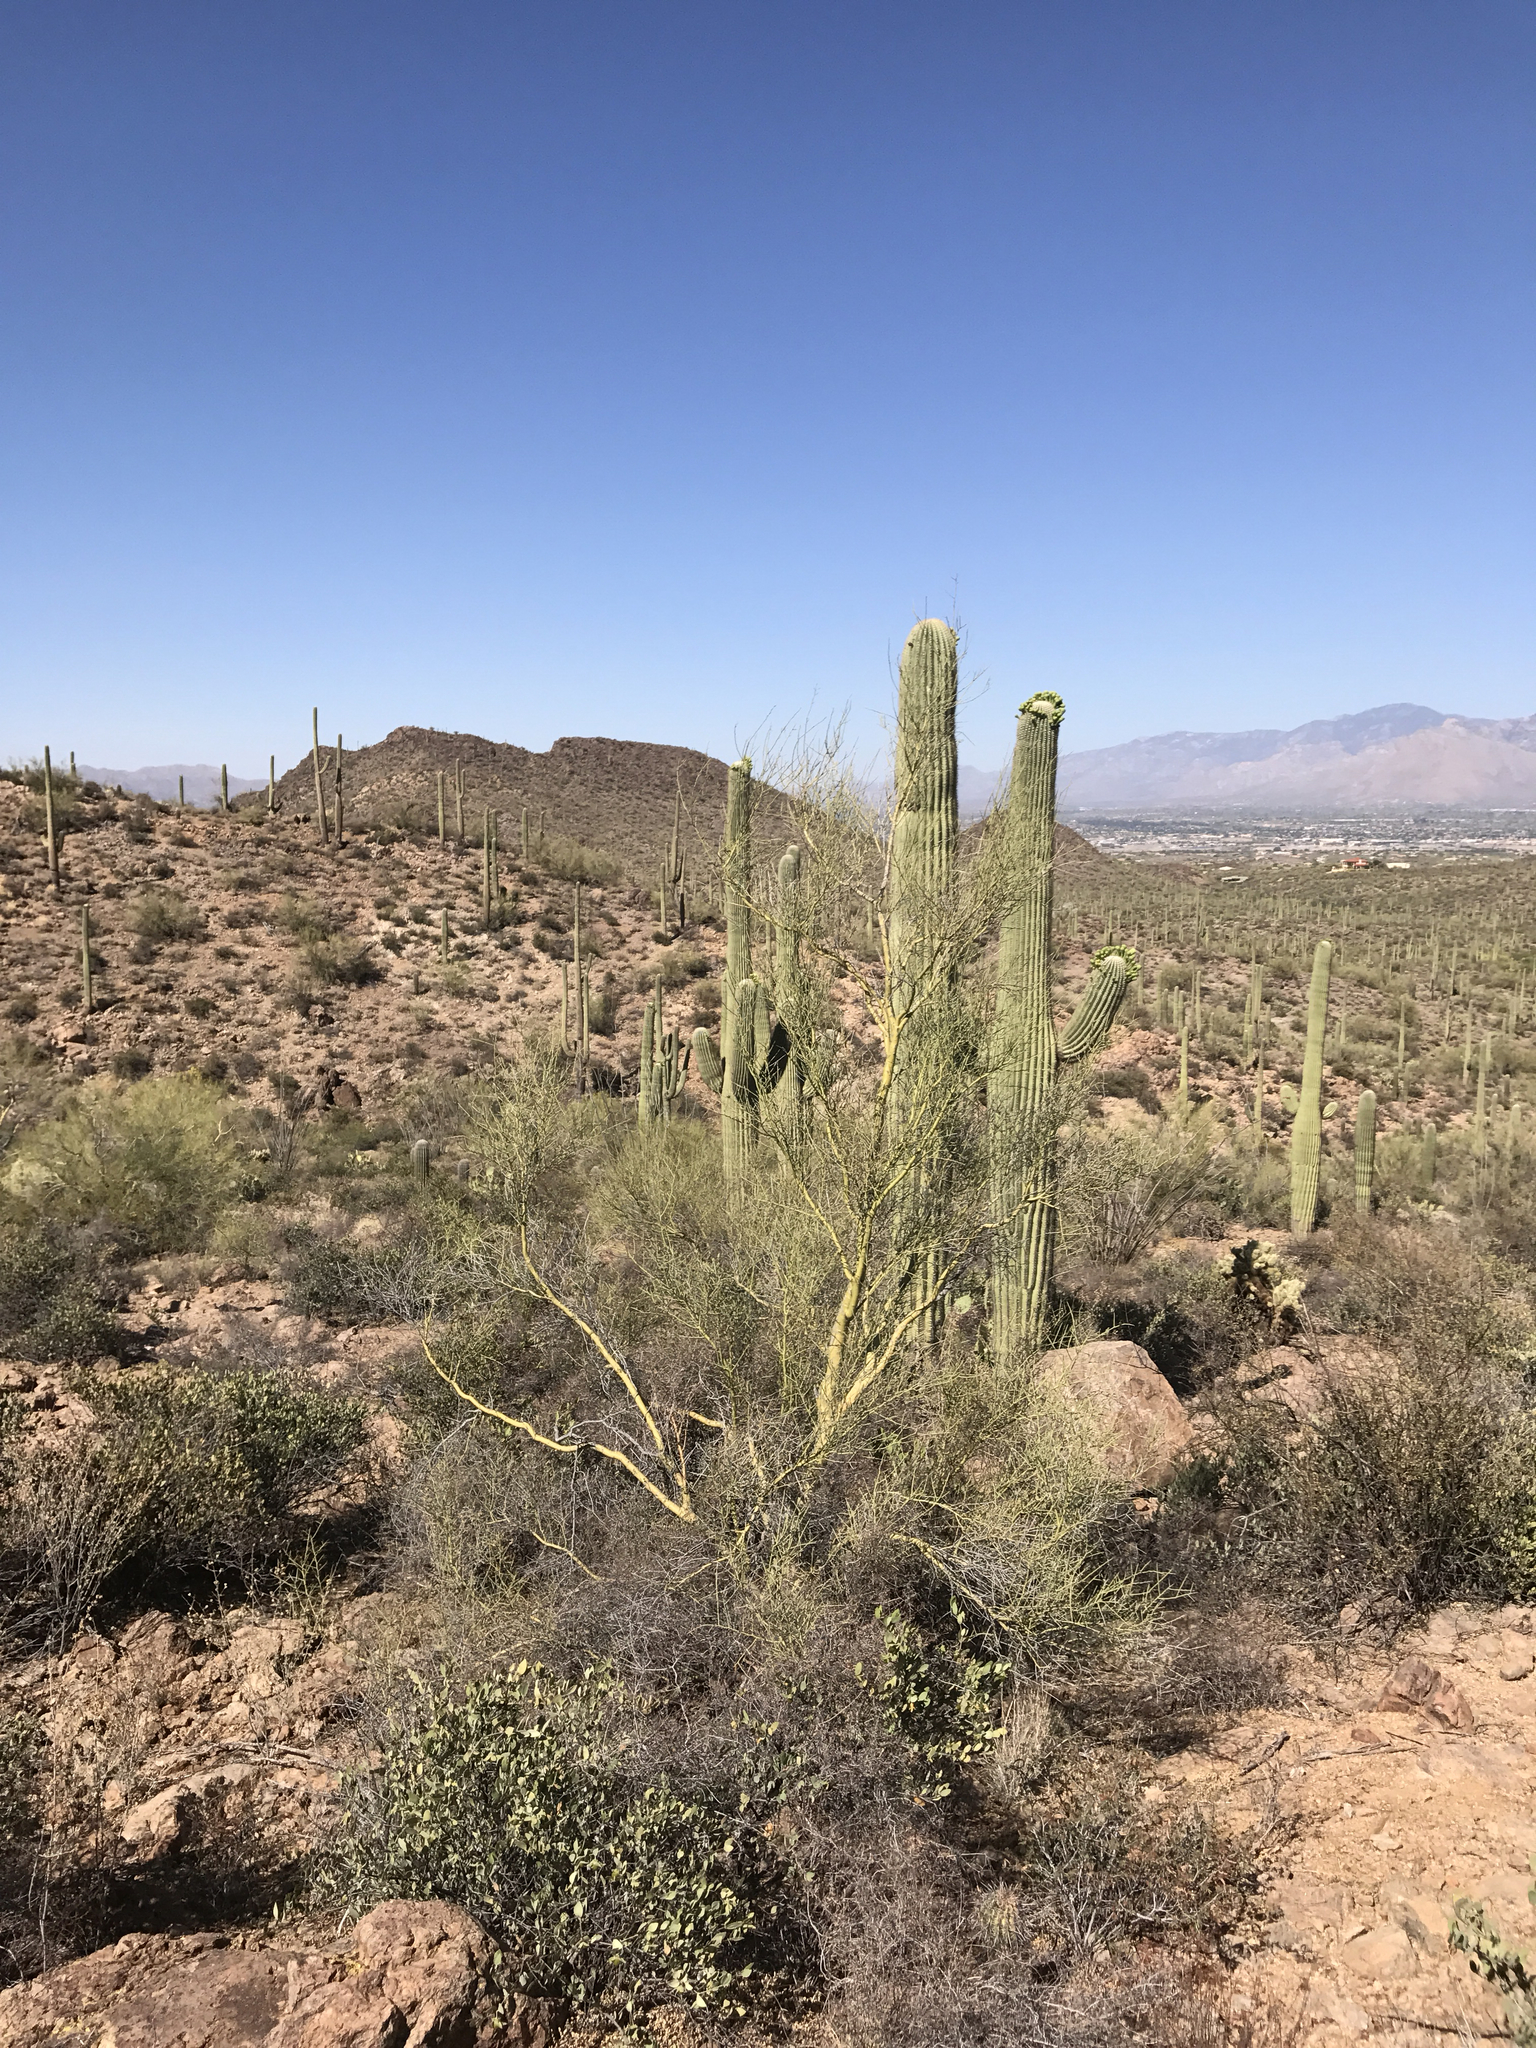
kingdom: Plantae
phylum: Tracheophyta
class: Magnoliopsida
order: Fabales
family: Fabaceae
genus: Parkinsonia
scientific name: Parkinsonia microphylla
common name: Yellow paloverde
